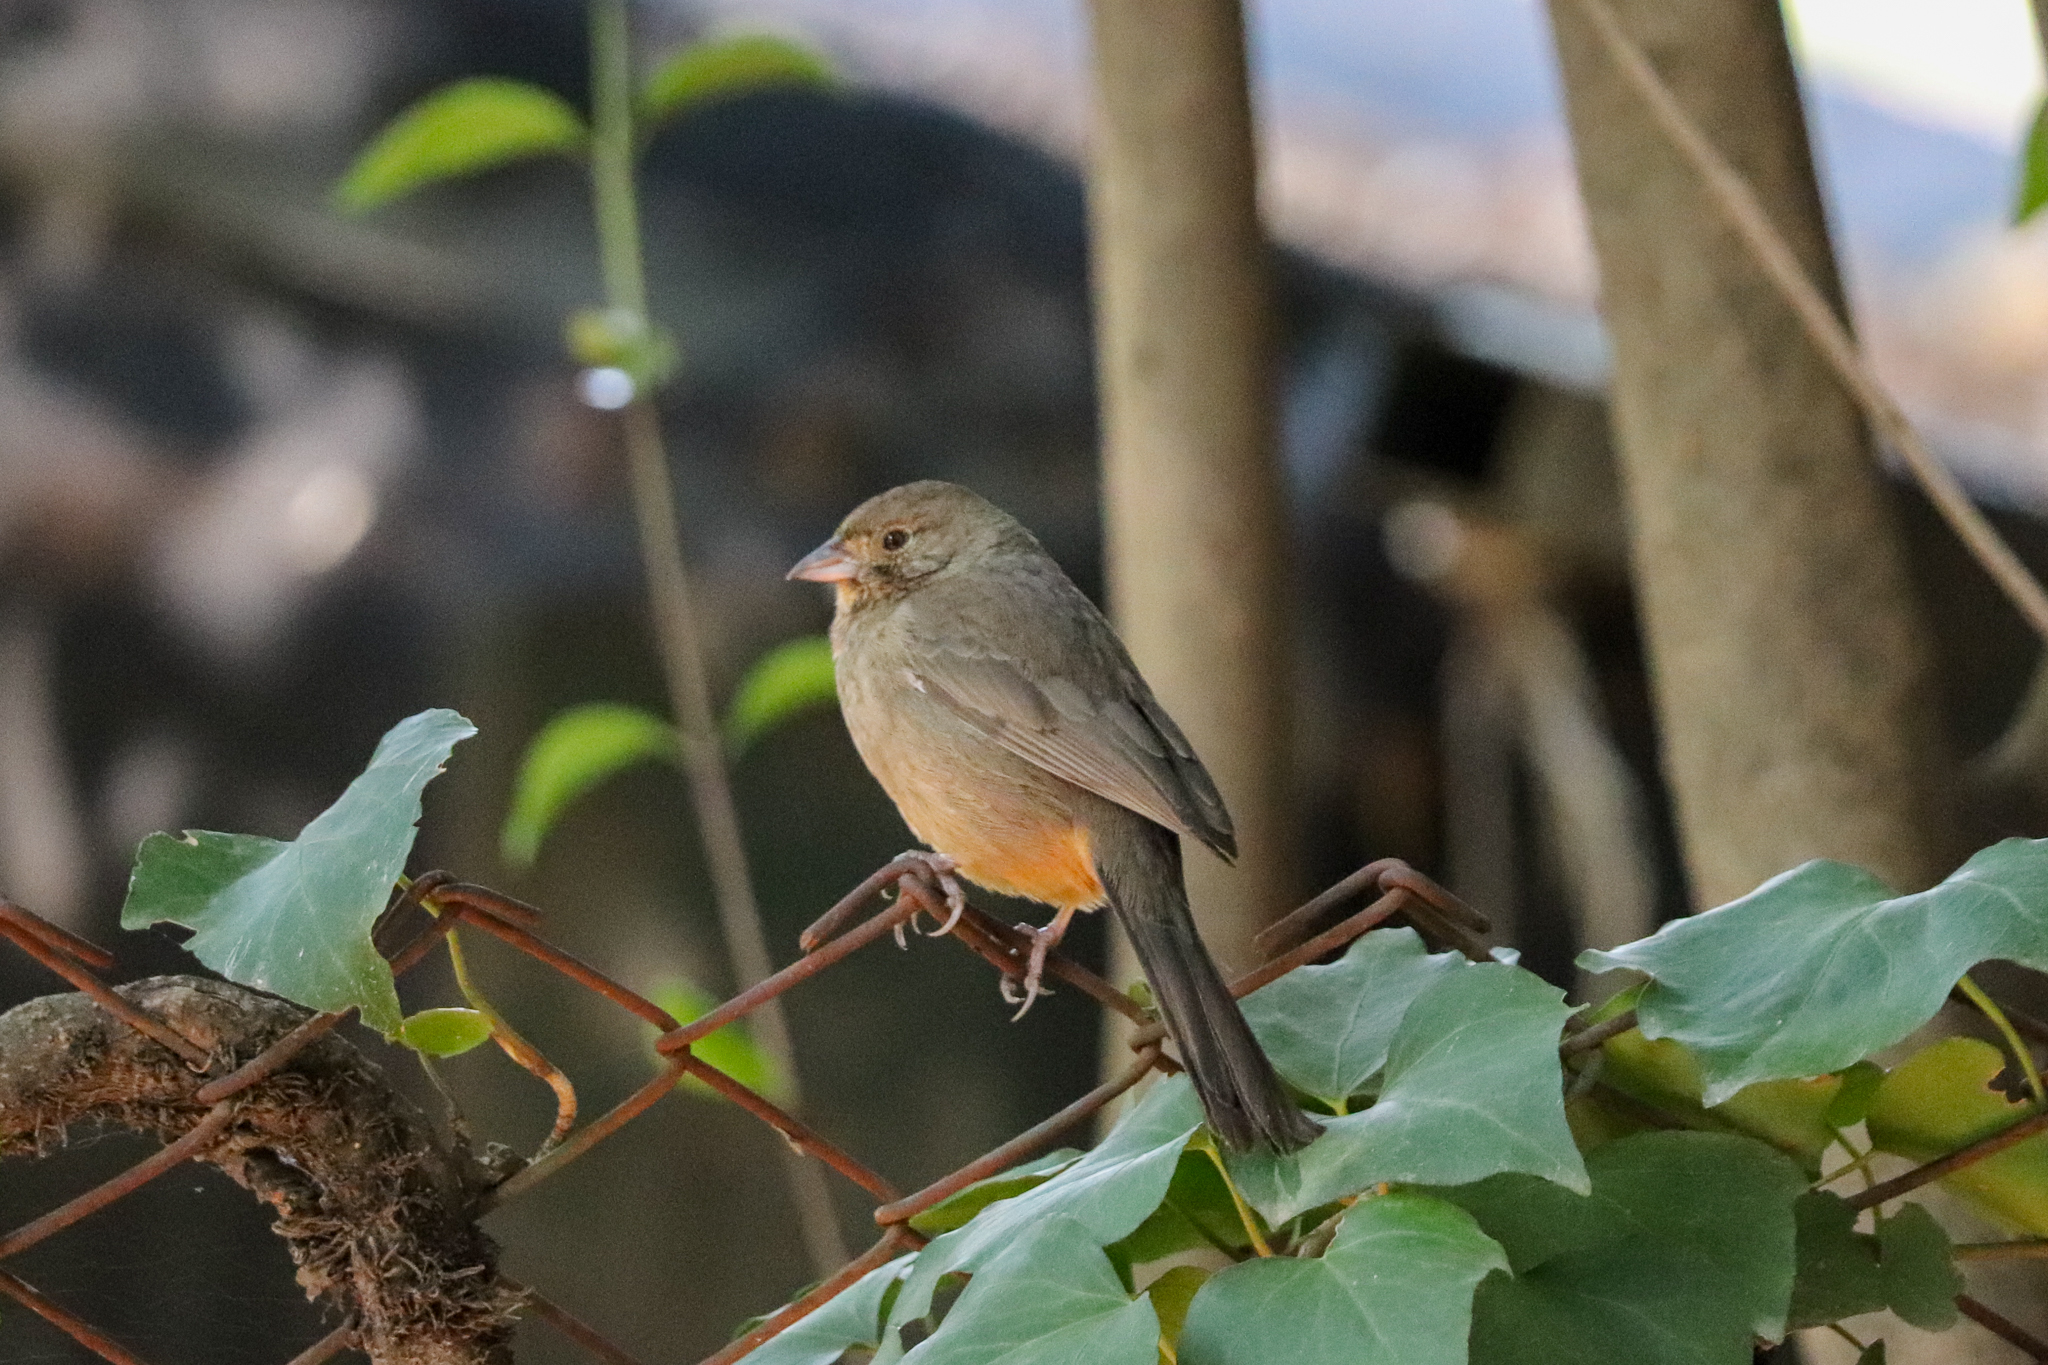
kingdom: Animalia
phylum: Chordata
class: Aves
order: Passeriformes
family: Passerellidae
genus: Melozone
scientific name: Melozone fusca
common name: Canyon towhee
